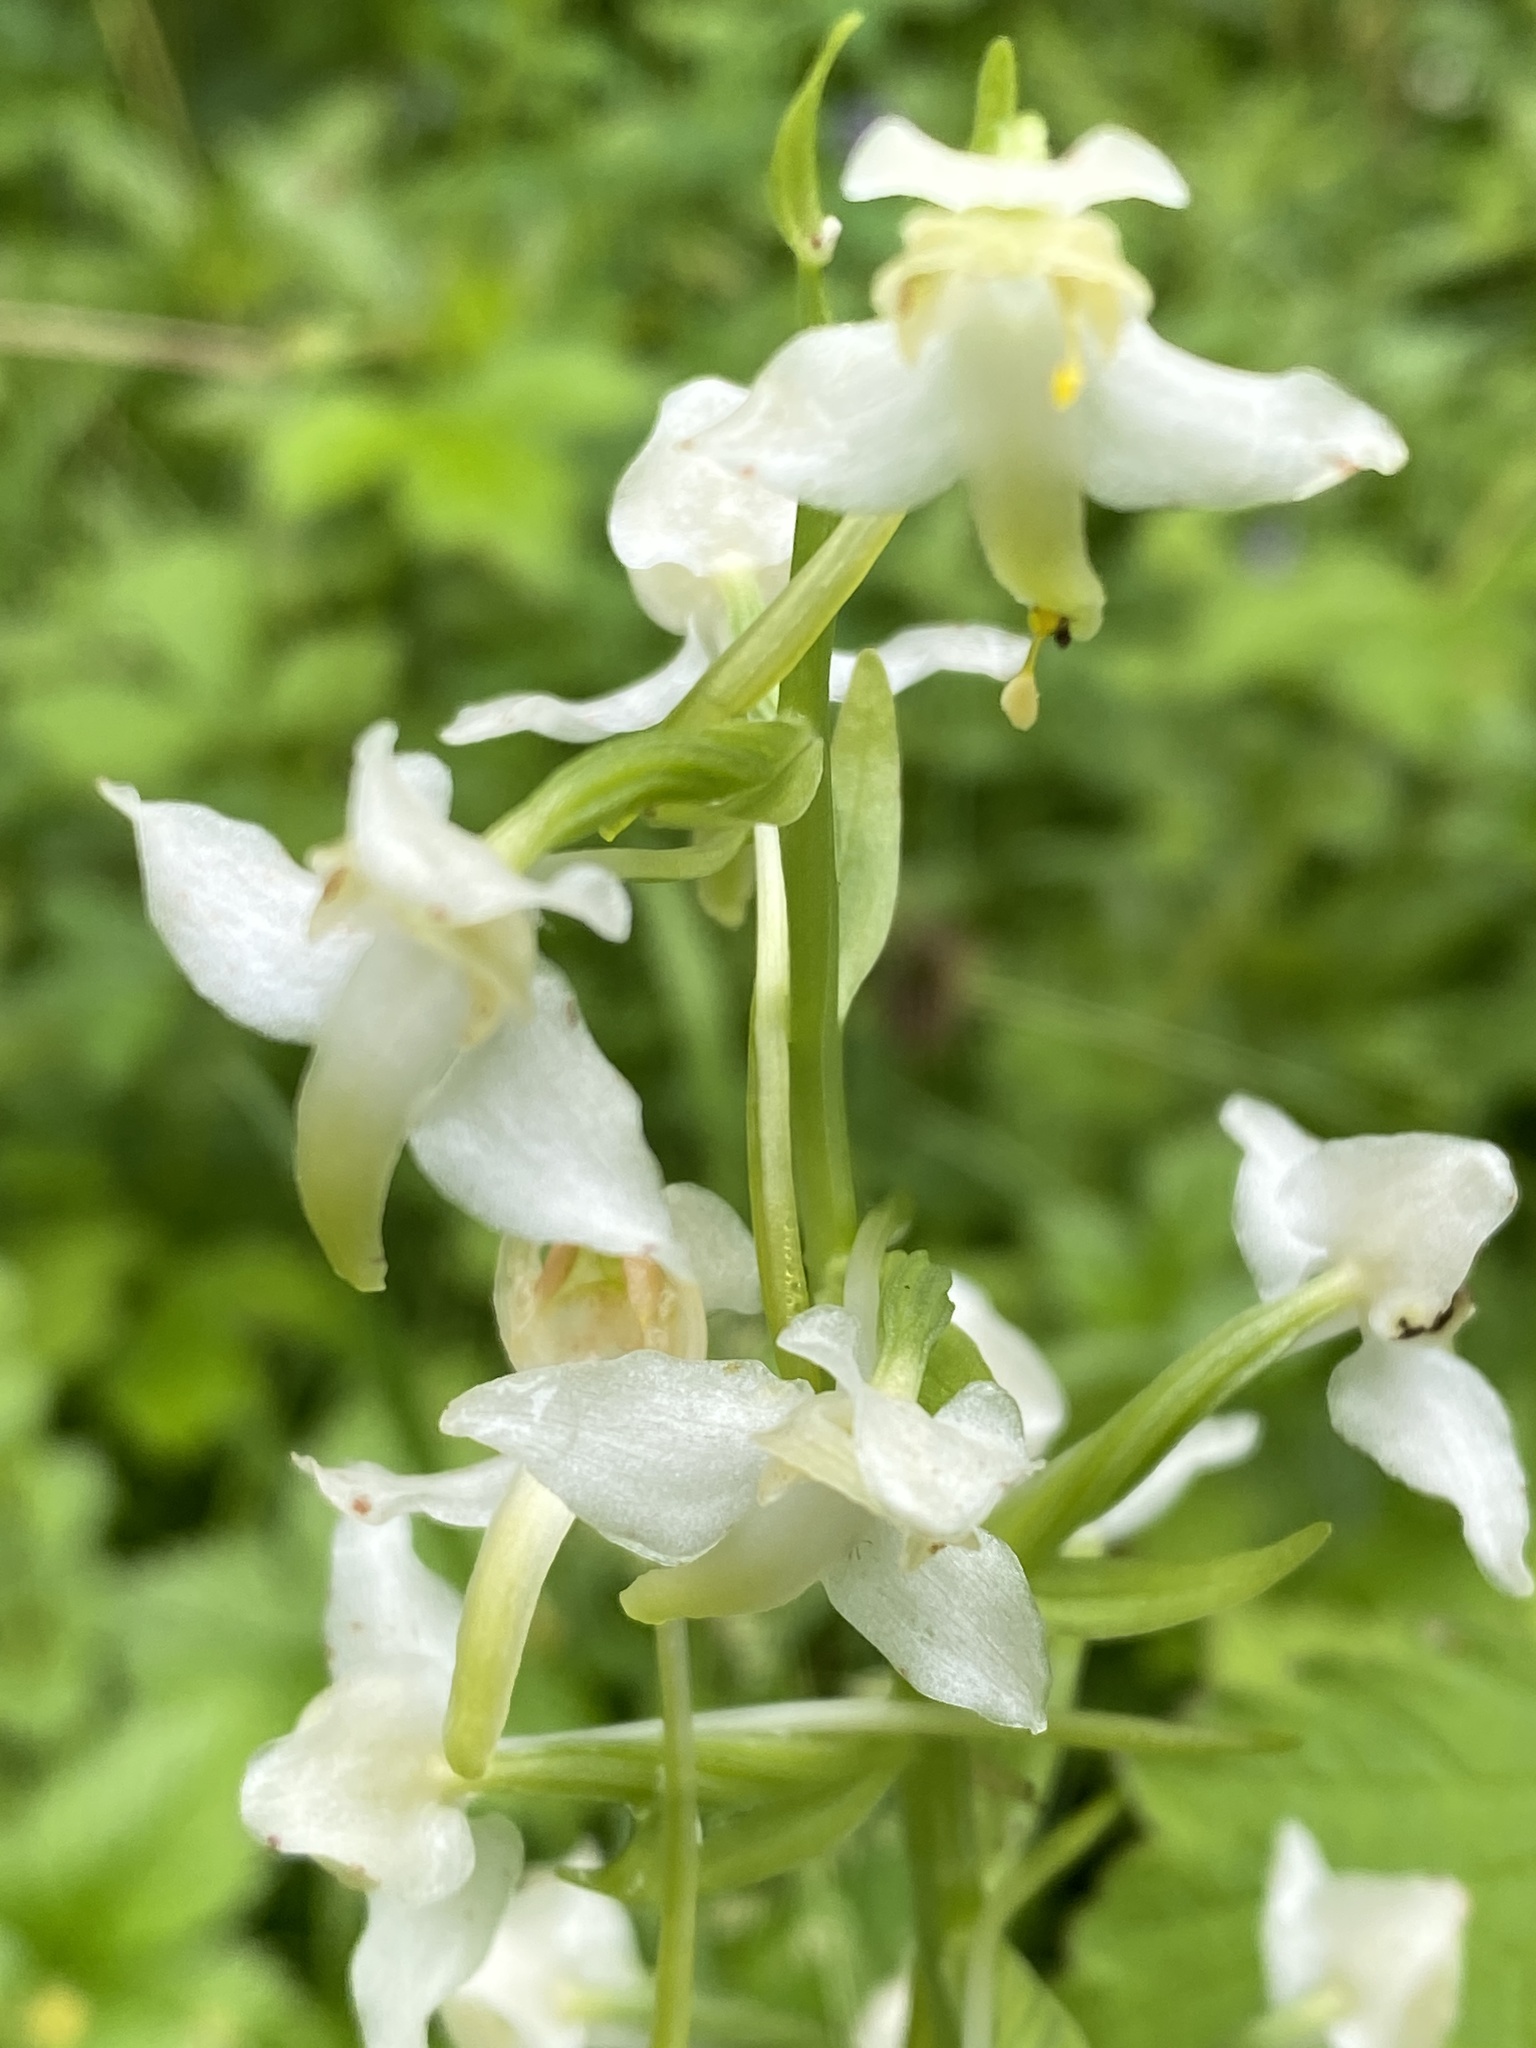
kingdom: Plantae
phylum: Tracheophyta
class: Liliopsida
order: Asparagales
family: Orchidaceae
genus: Platanthera
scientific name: Platanthera chlorantha
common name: Greater butterfly-orchid
